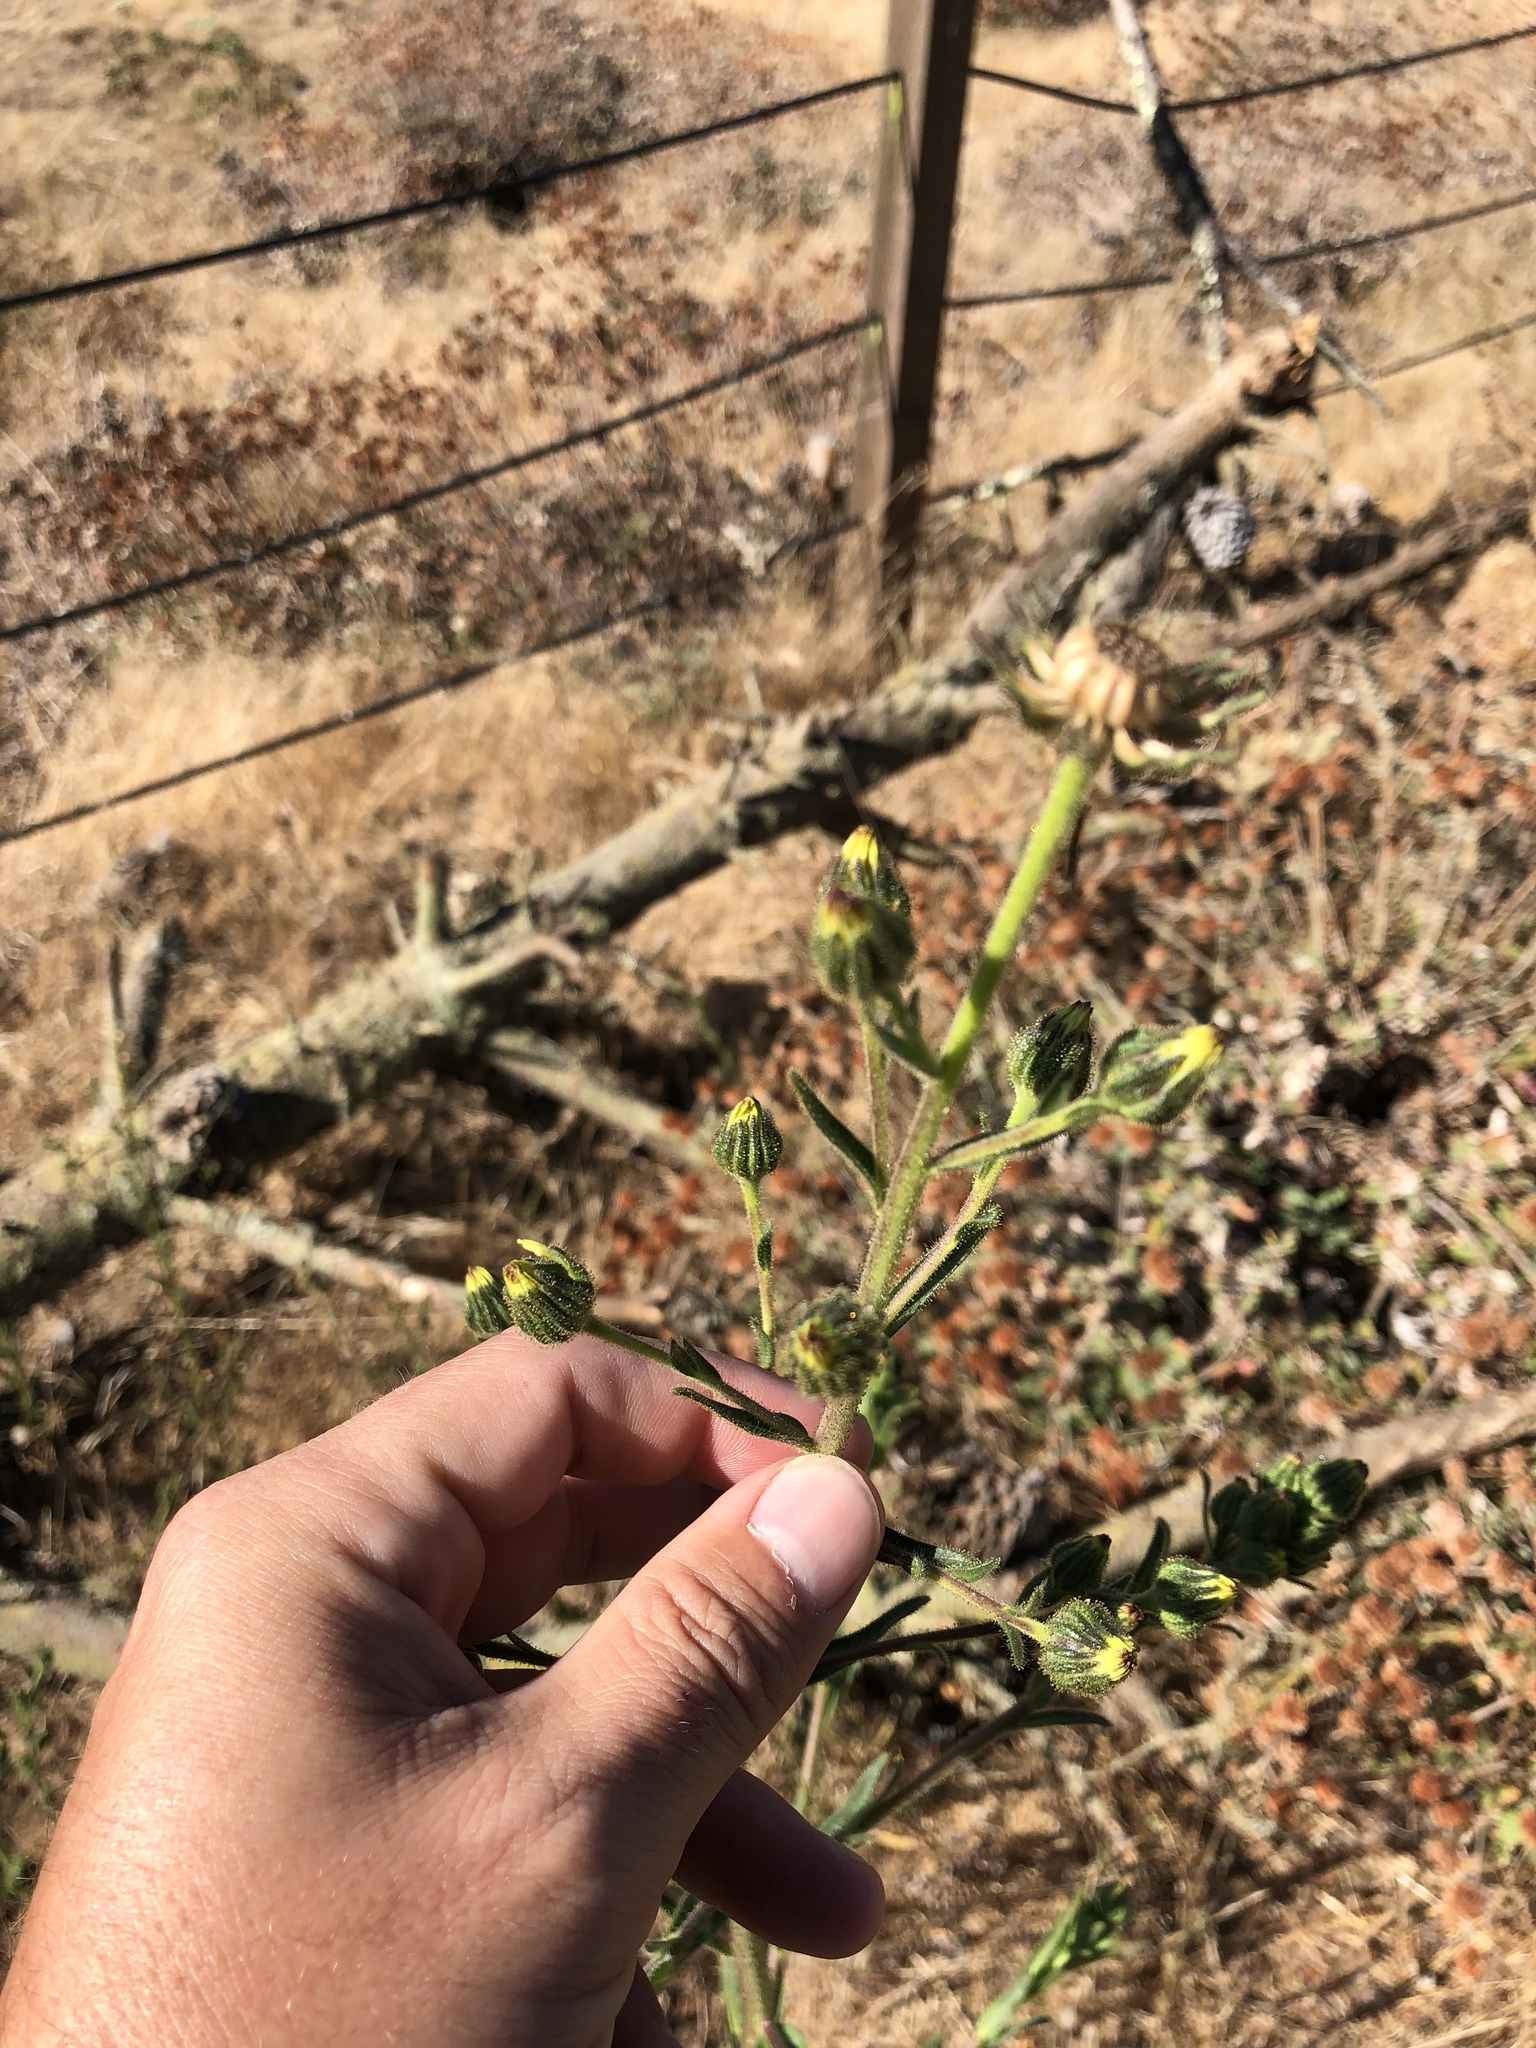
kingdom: Plantae
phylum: Tracheophyta
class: Magnoliopsida
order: Asterales
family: Asteraceae
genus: Madia
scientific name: Madia sativa
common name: Coast tarweed
